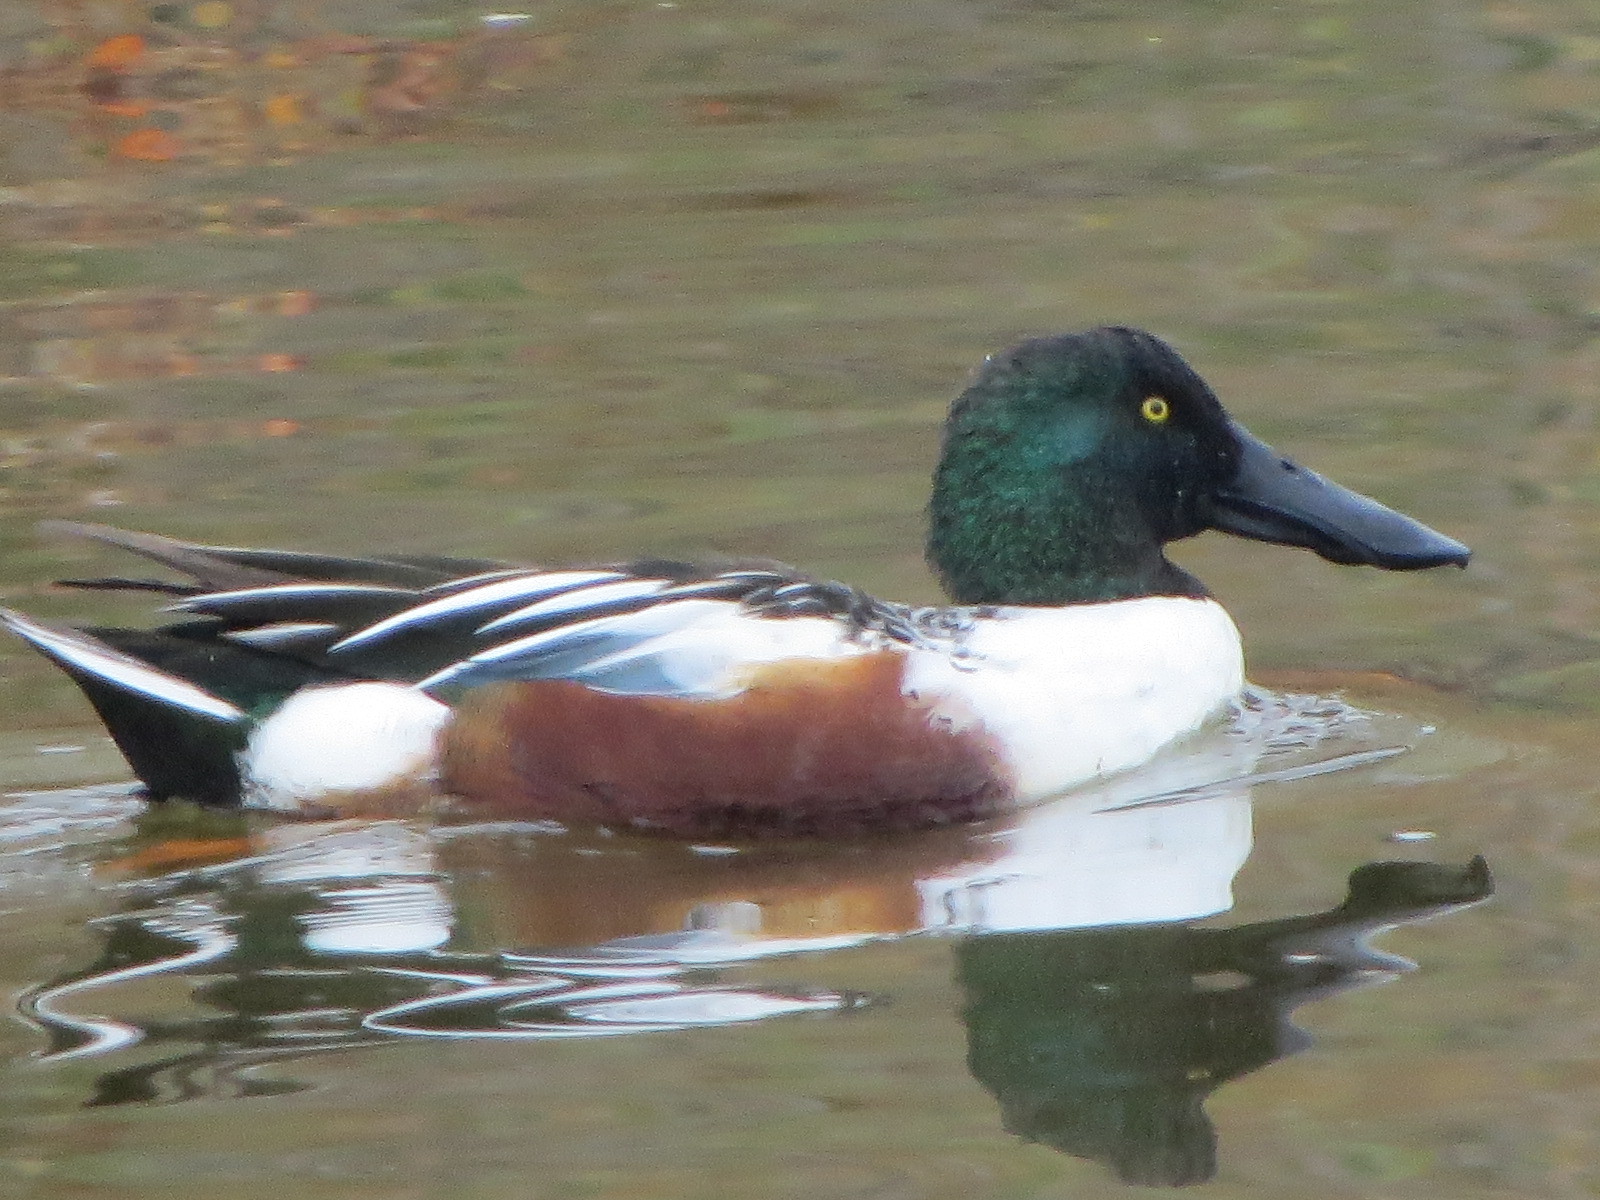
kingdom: Animalia
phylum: Chordata
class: Aves
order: Anseriformes
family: Anatidae
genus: Spatula
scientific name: Spatula clypeata
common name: Northern shoveler
